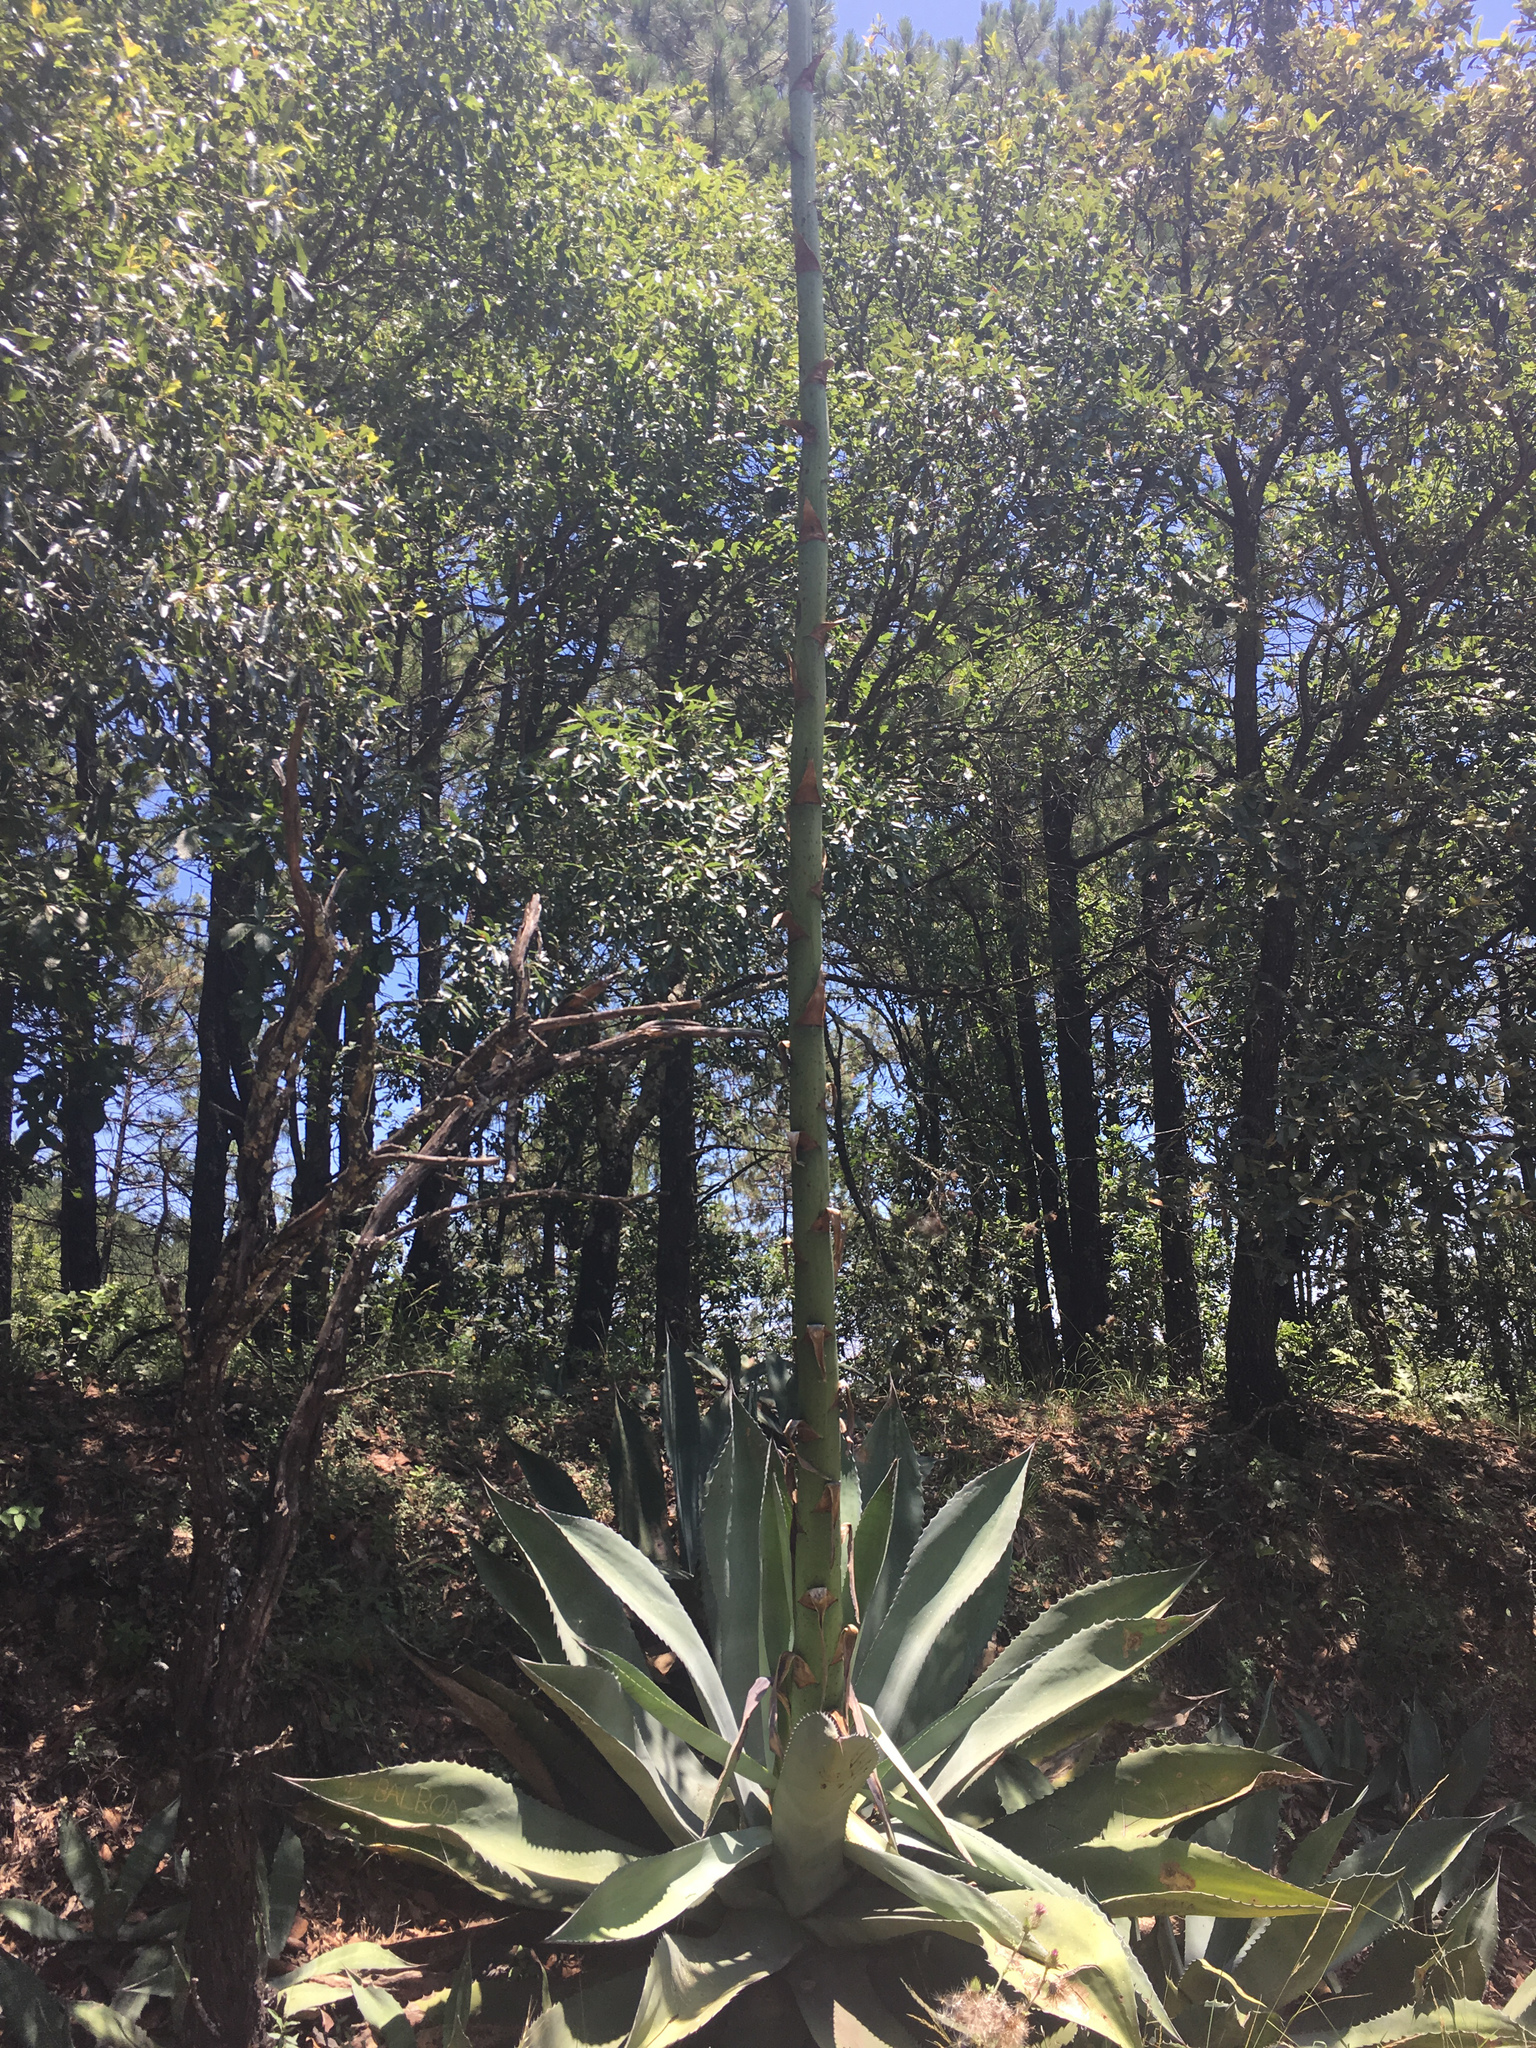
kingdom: Plantae
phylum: Tracheophyta
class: Liliopsida
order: Asparagales
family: Asparagaceae
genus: Agave
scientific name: Agave salmiana
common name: Pulque agave
